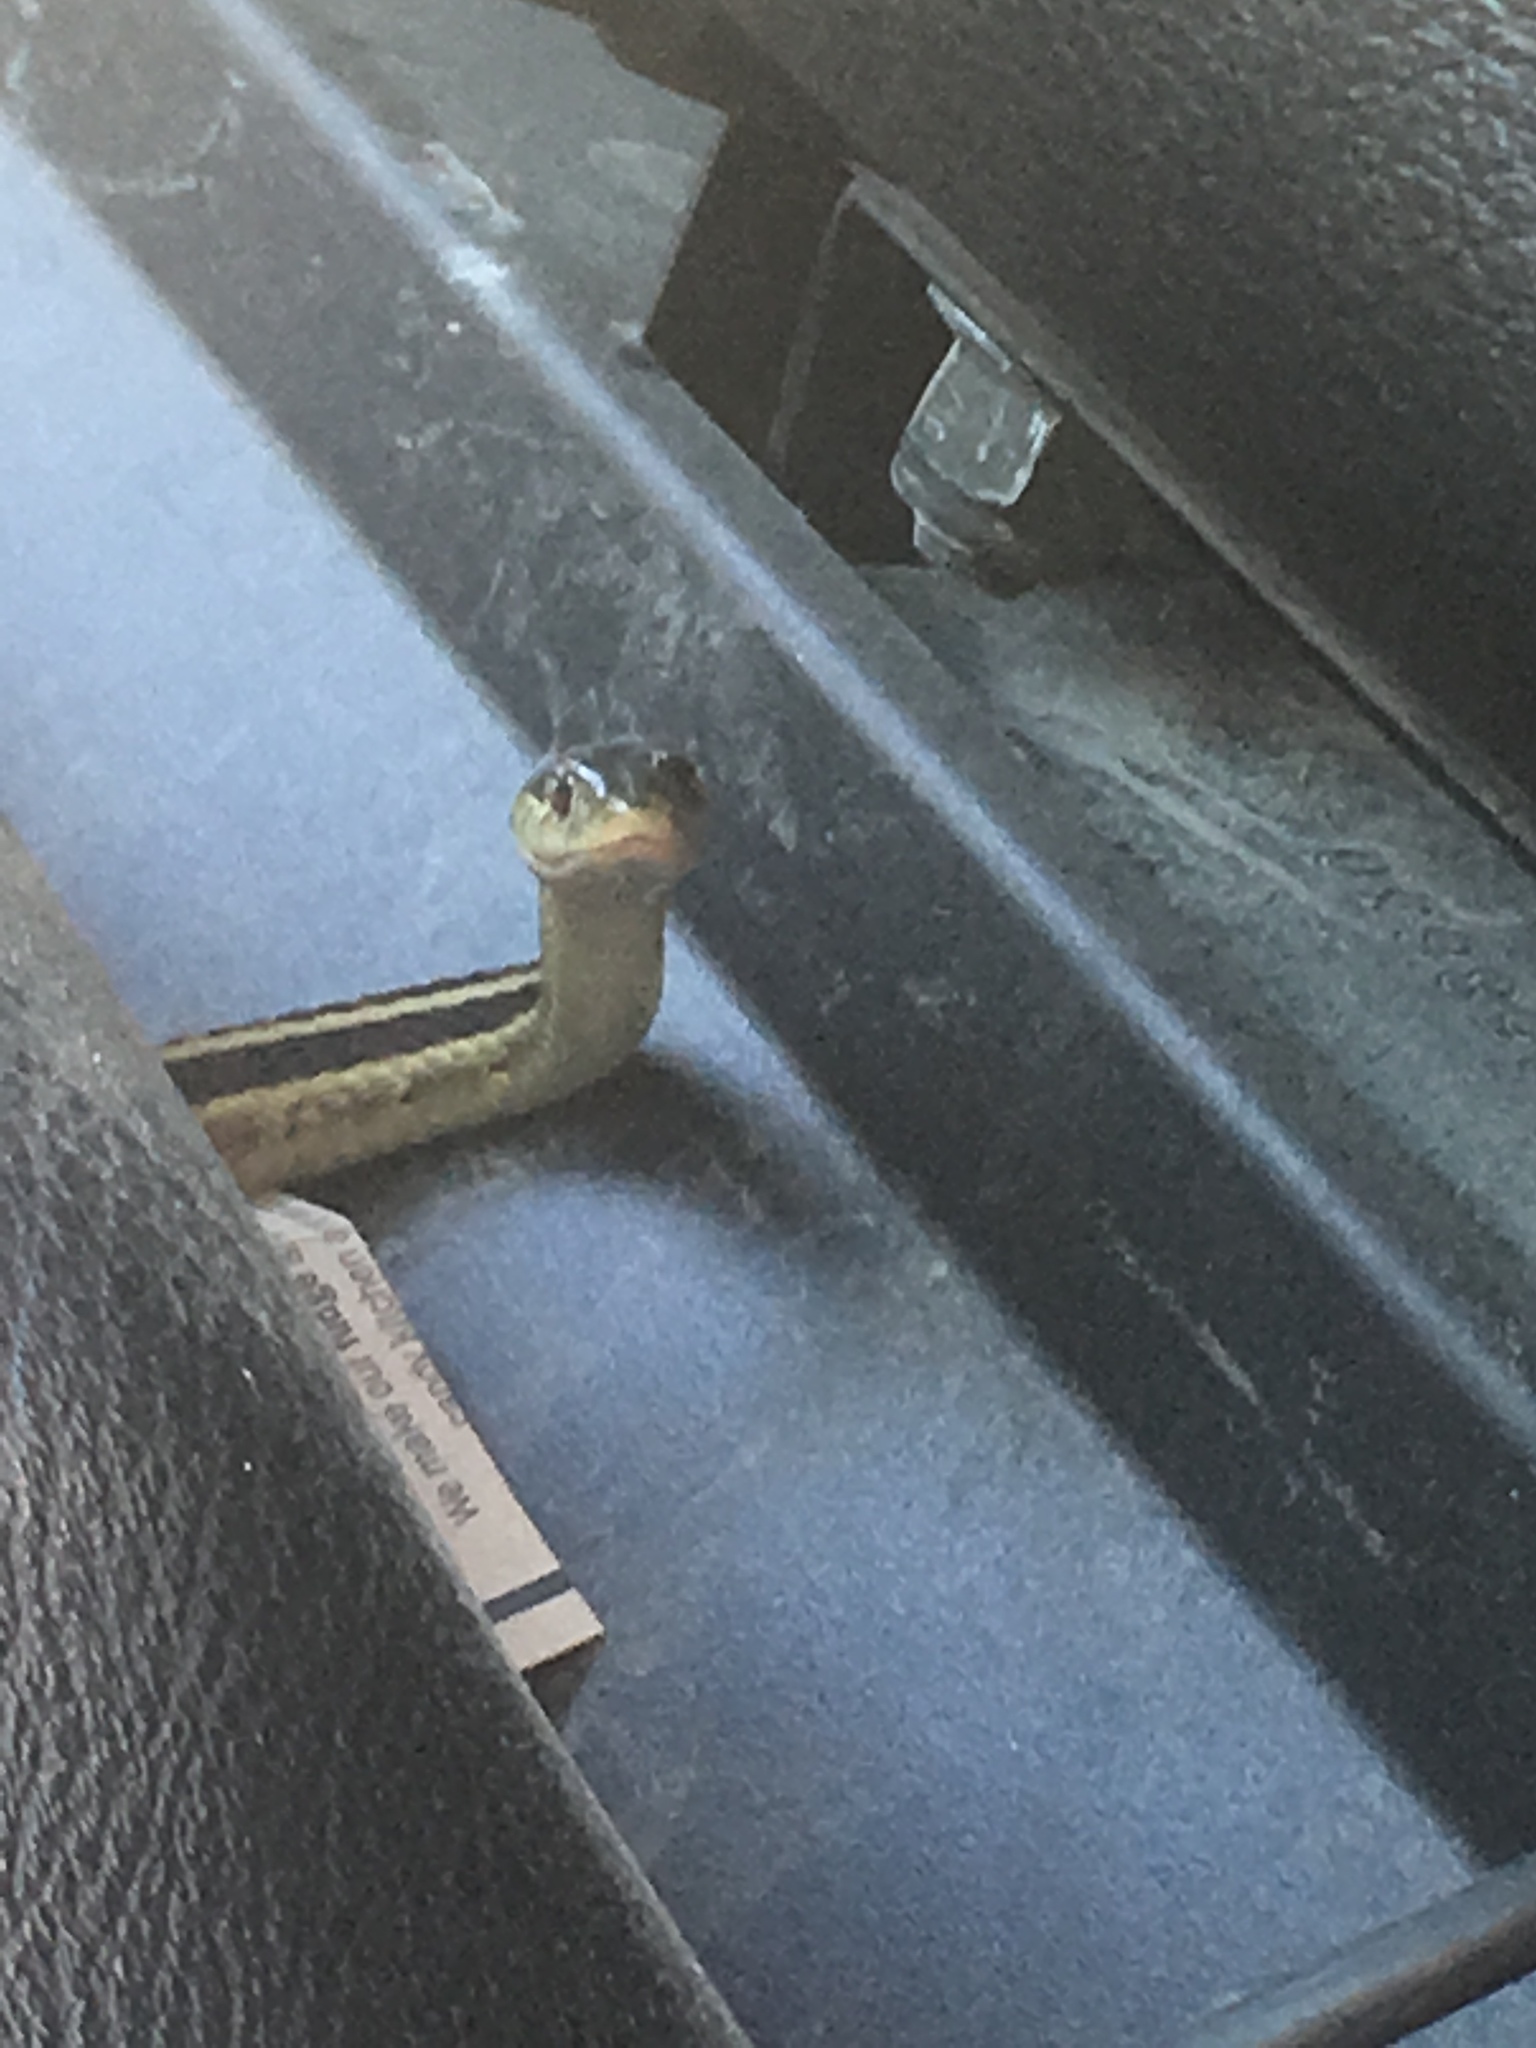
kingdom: Animalia
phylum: Chordata
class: Squamata
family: Colubridae
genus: Thamnophis
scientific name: Thamnophis sirtalis
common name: Common garter snake
